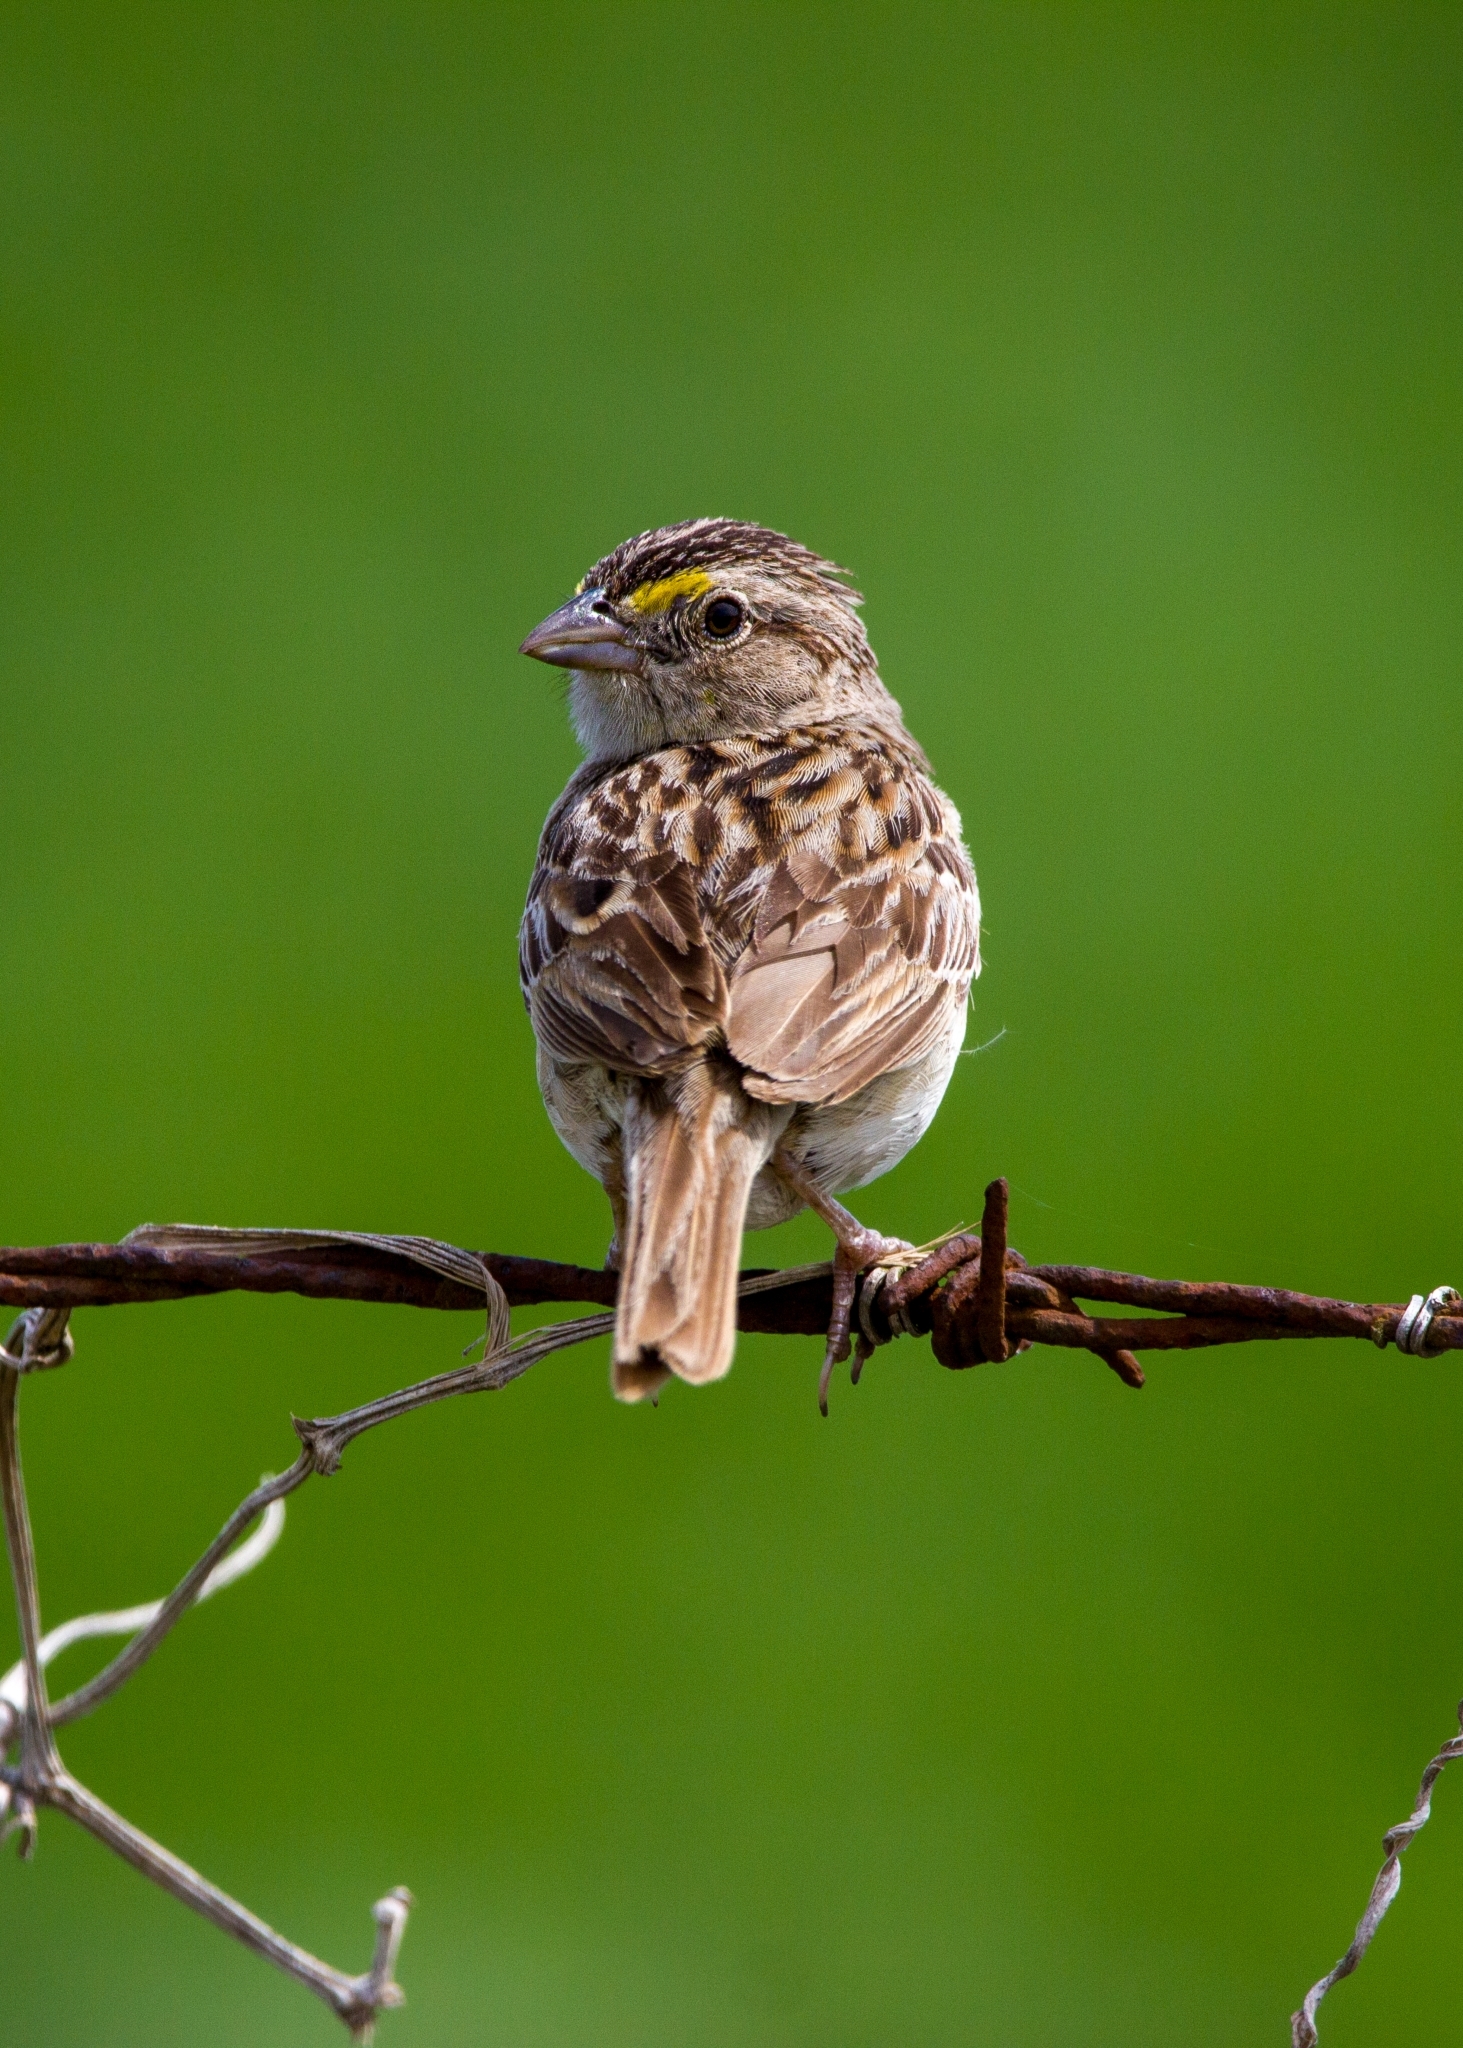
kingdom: Animalia
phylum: Chordata
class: Aves
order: Passeriformes
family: Passerellidae
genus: Ammodramus
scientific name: Ammodramus humeralis
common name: Grassland sparrow
